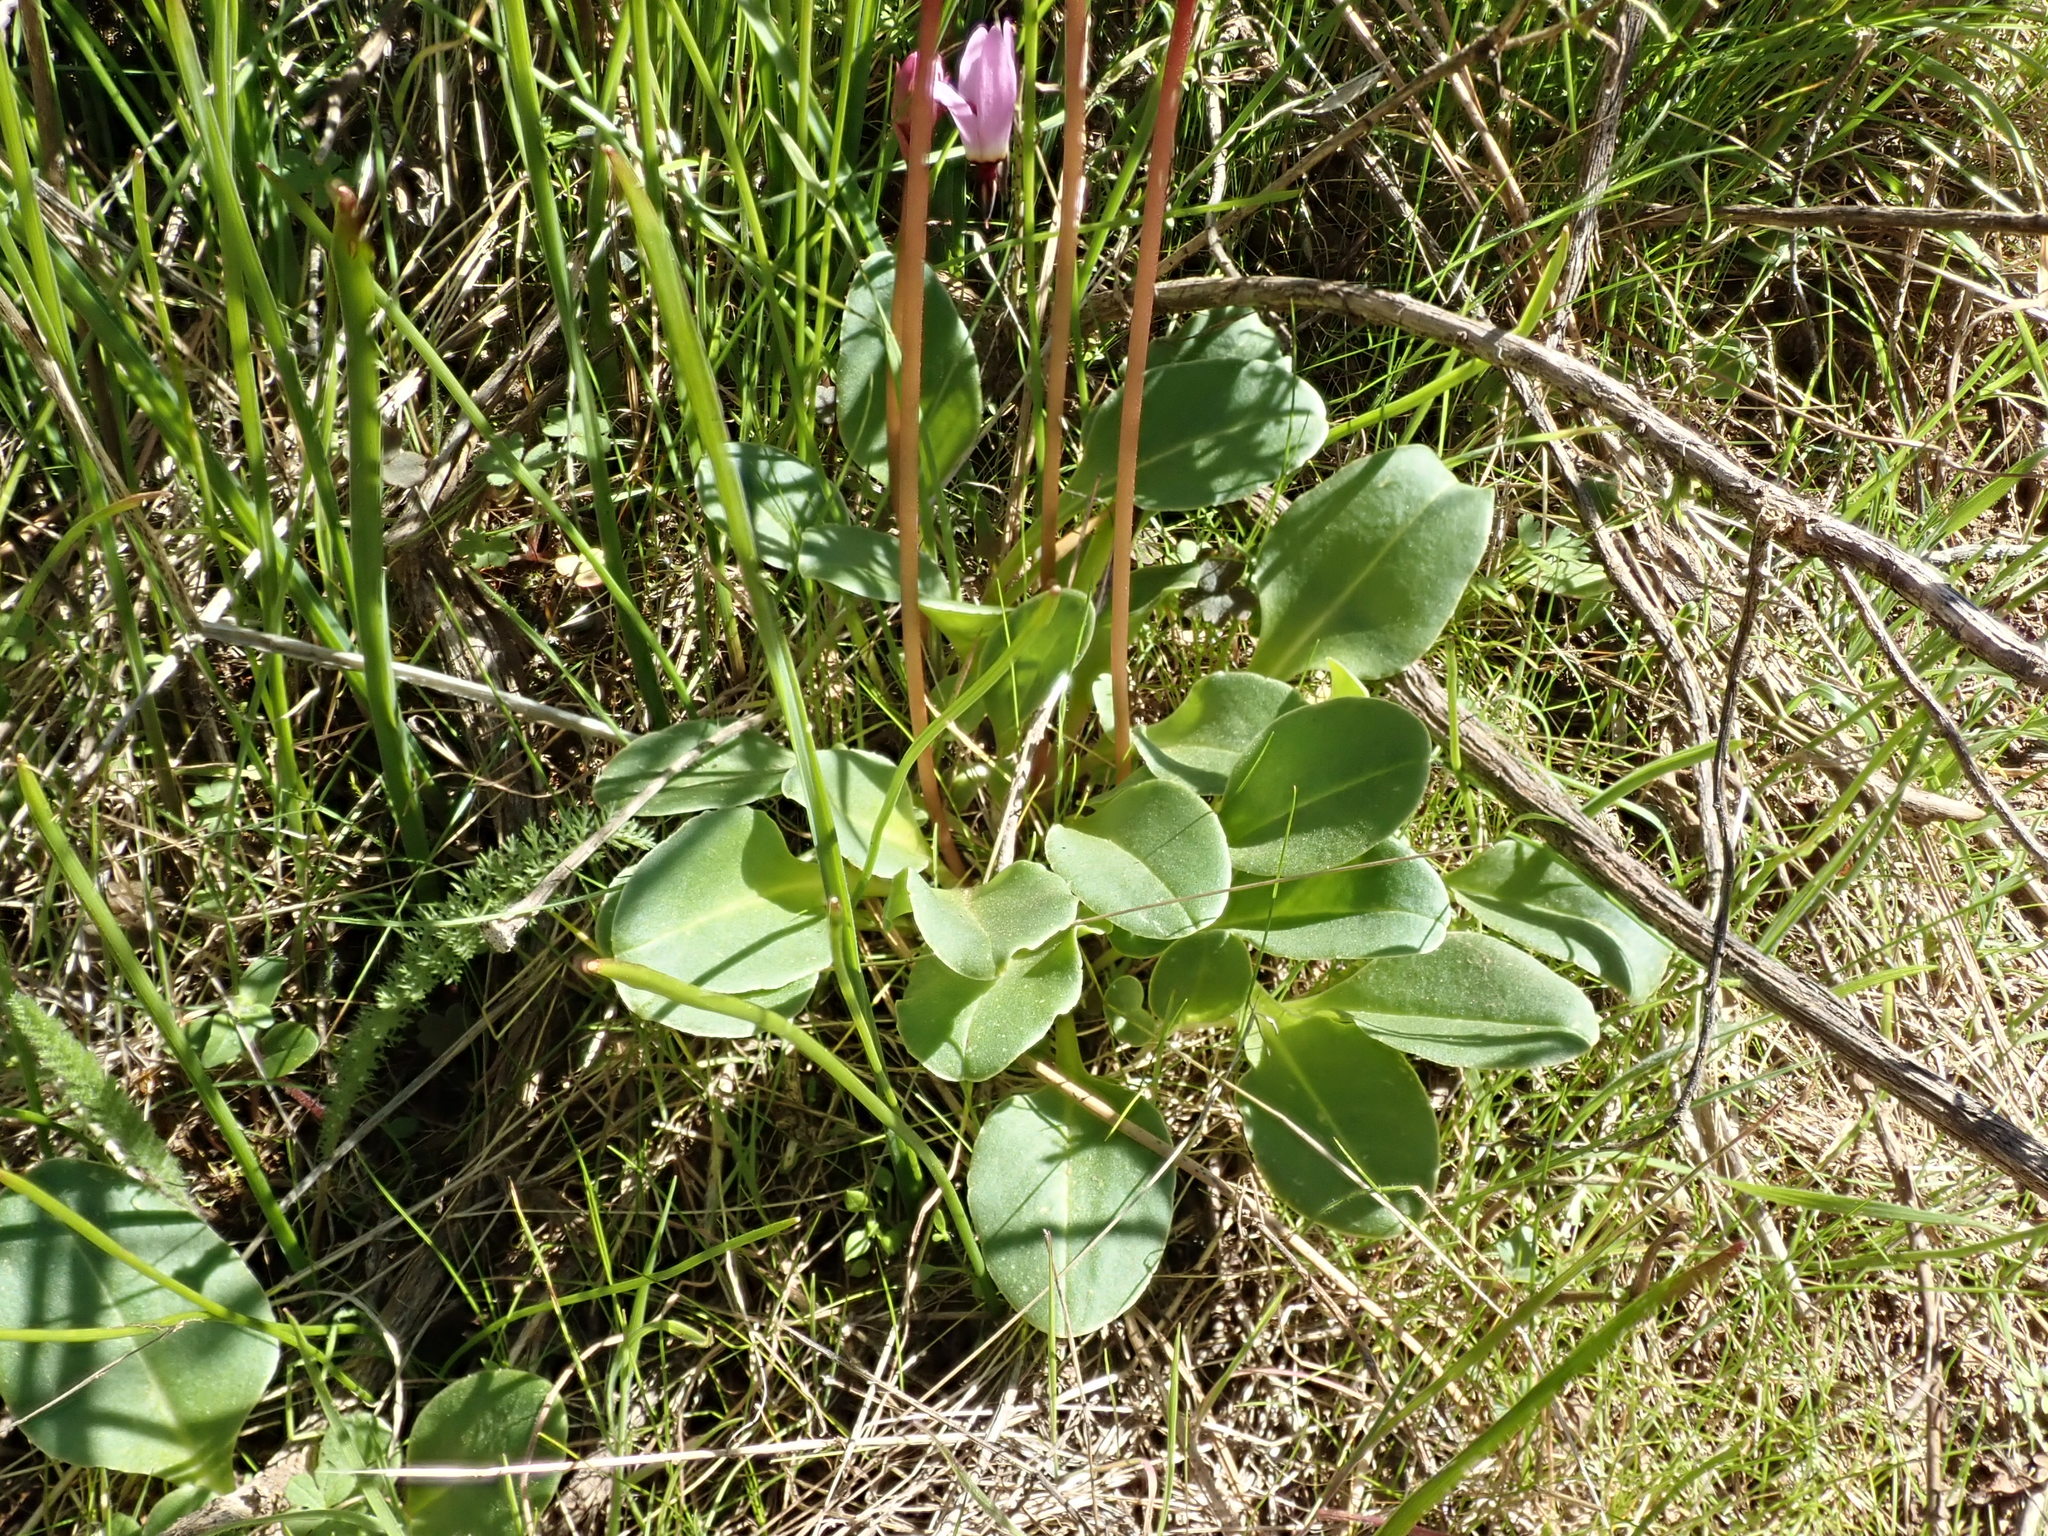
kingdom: Plantae
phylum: Tracheophyta
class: Magnoliopsida
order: Ericales
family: Primulaceae
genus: Dodecatheon
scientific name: Dodecatheon hendersonii
